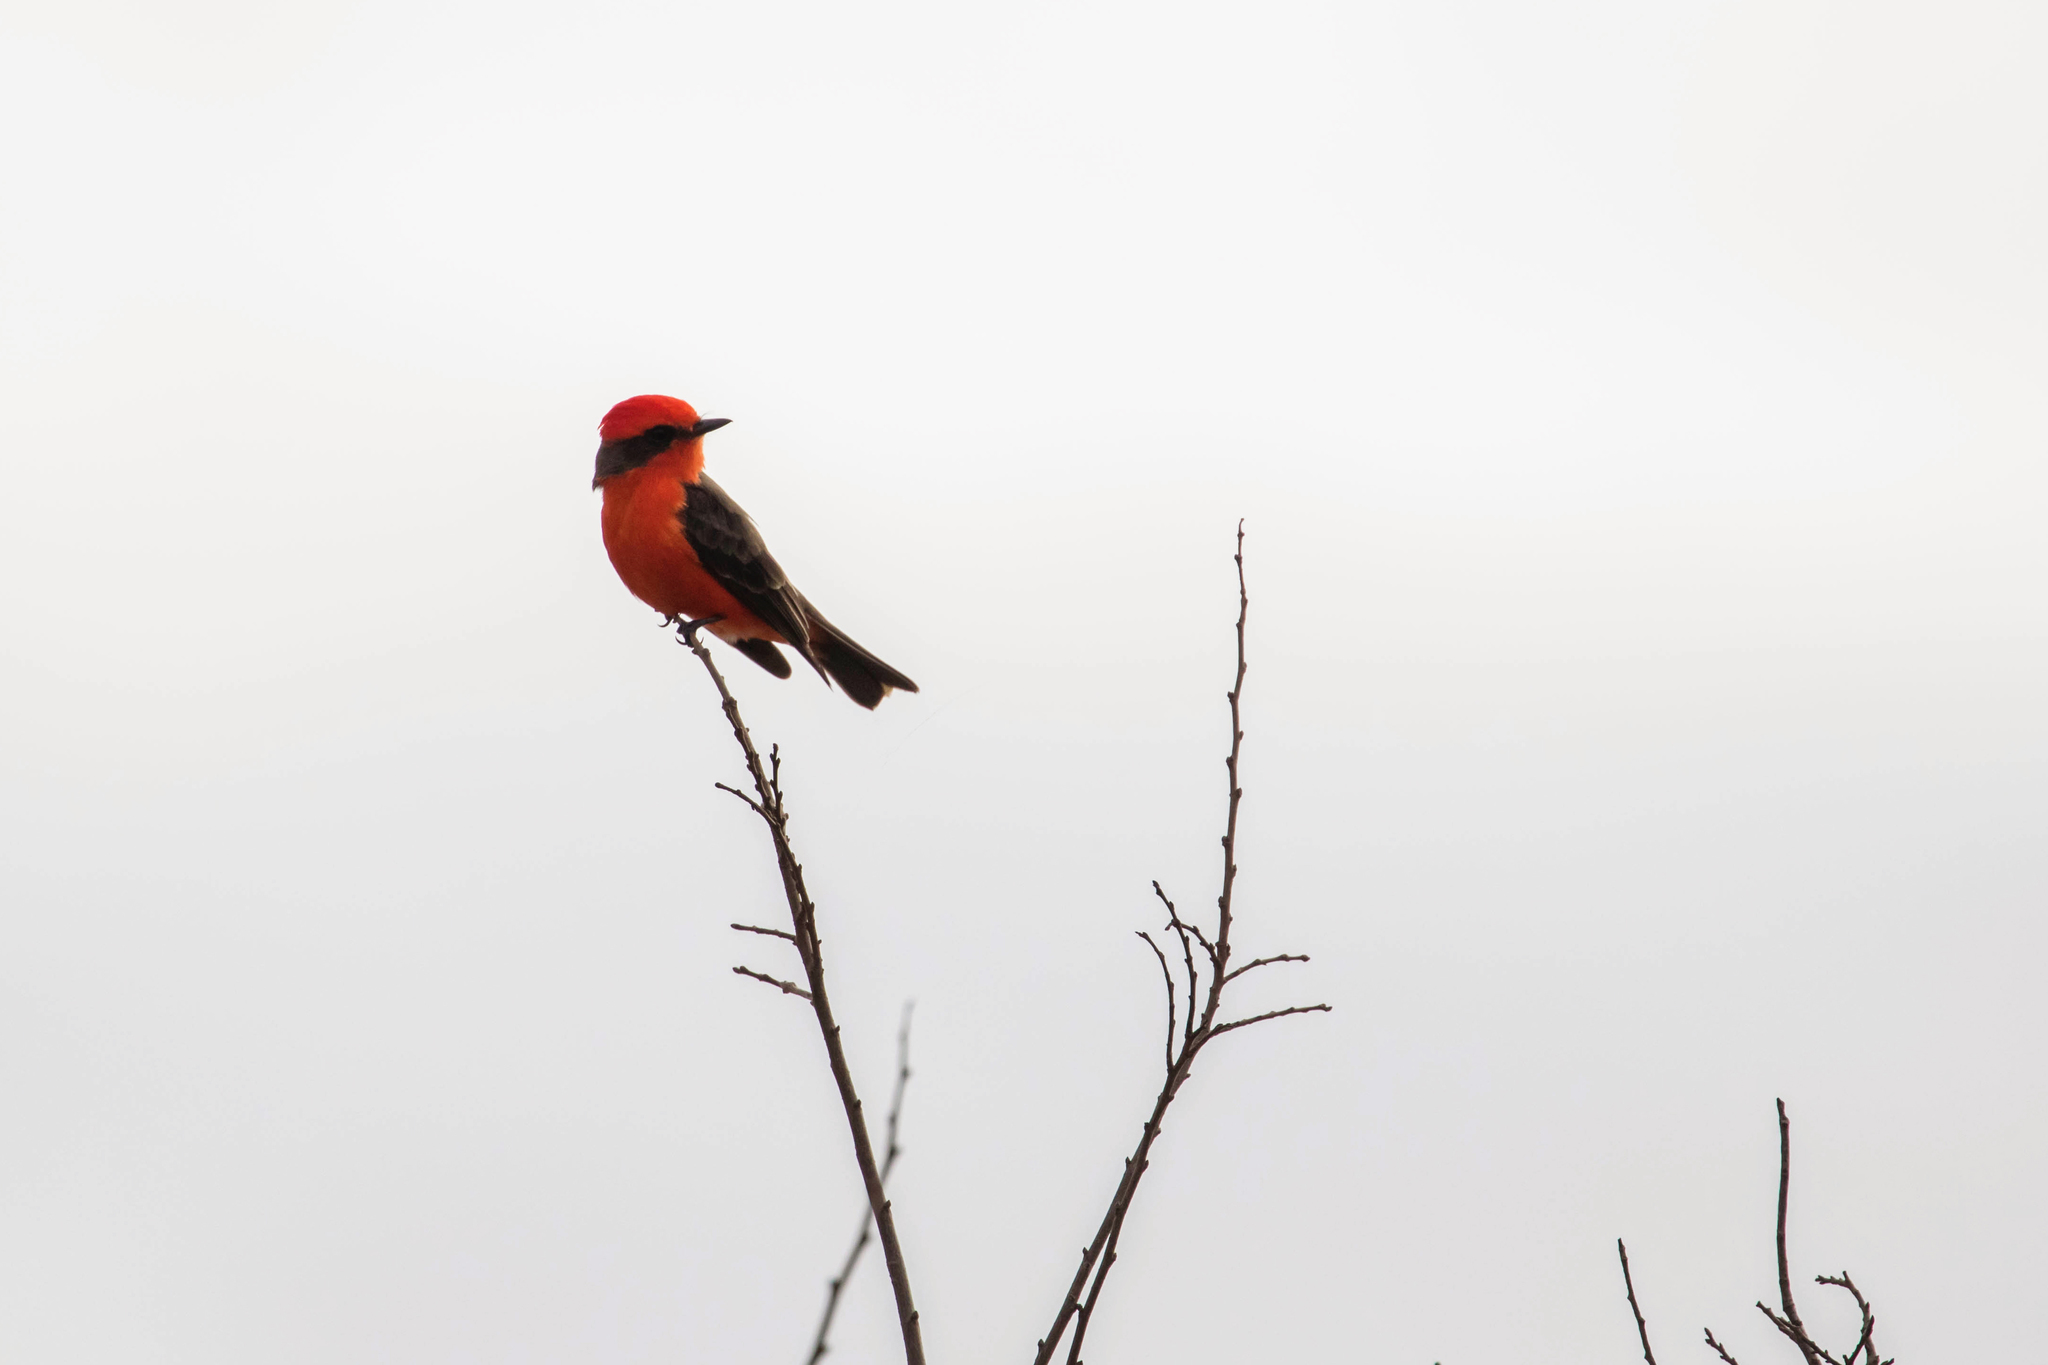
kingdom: Animalia
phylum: Chordata
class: Aves
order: Passeriformes
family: Tyrannidae
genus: Pyrocephalus
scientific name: Pyrocephalus rubinus
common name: Vermilion flycatcher
